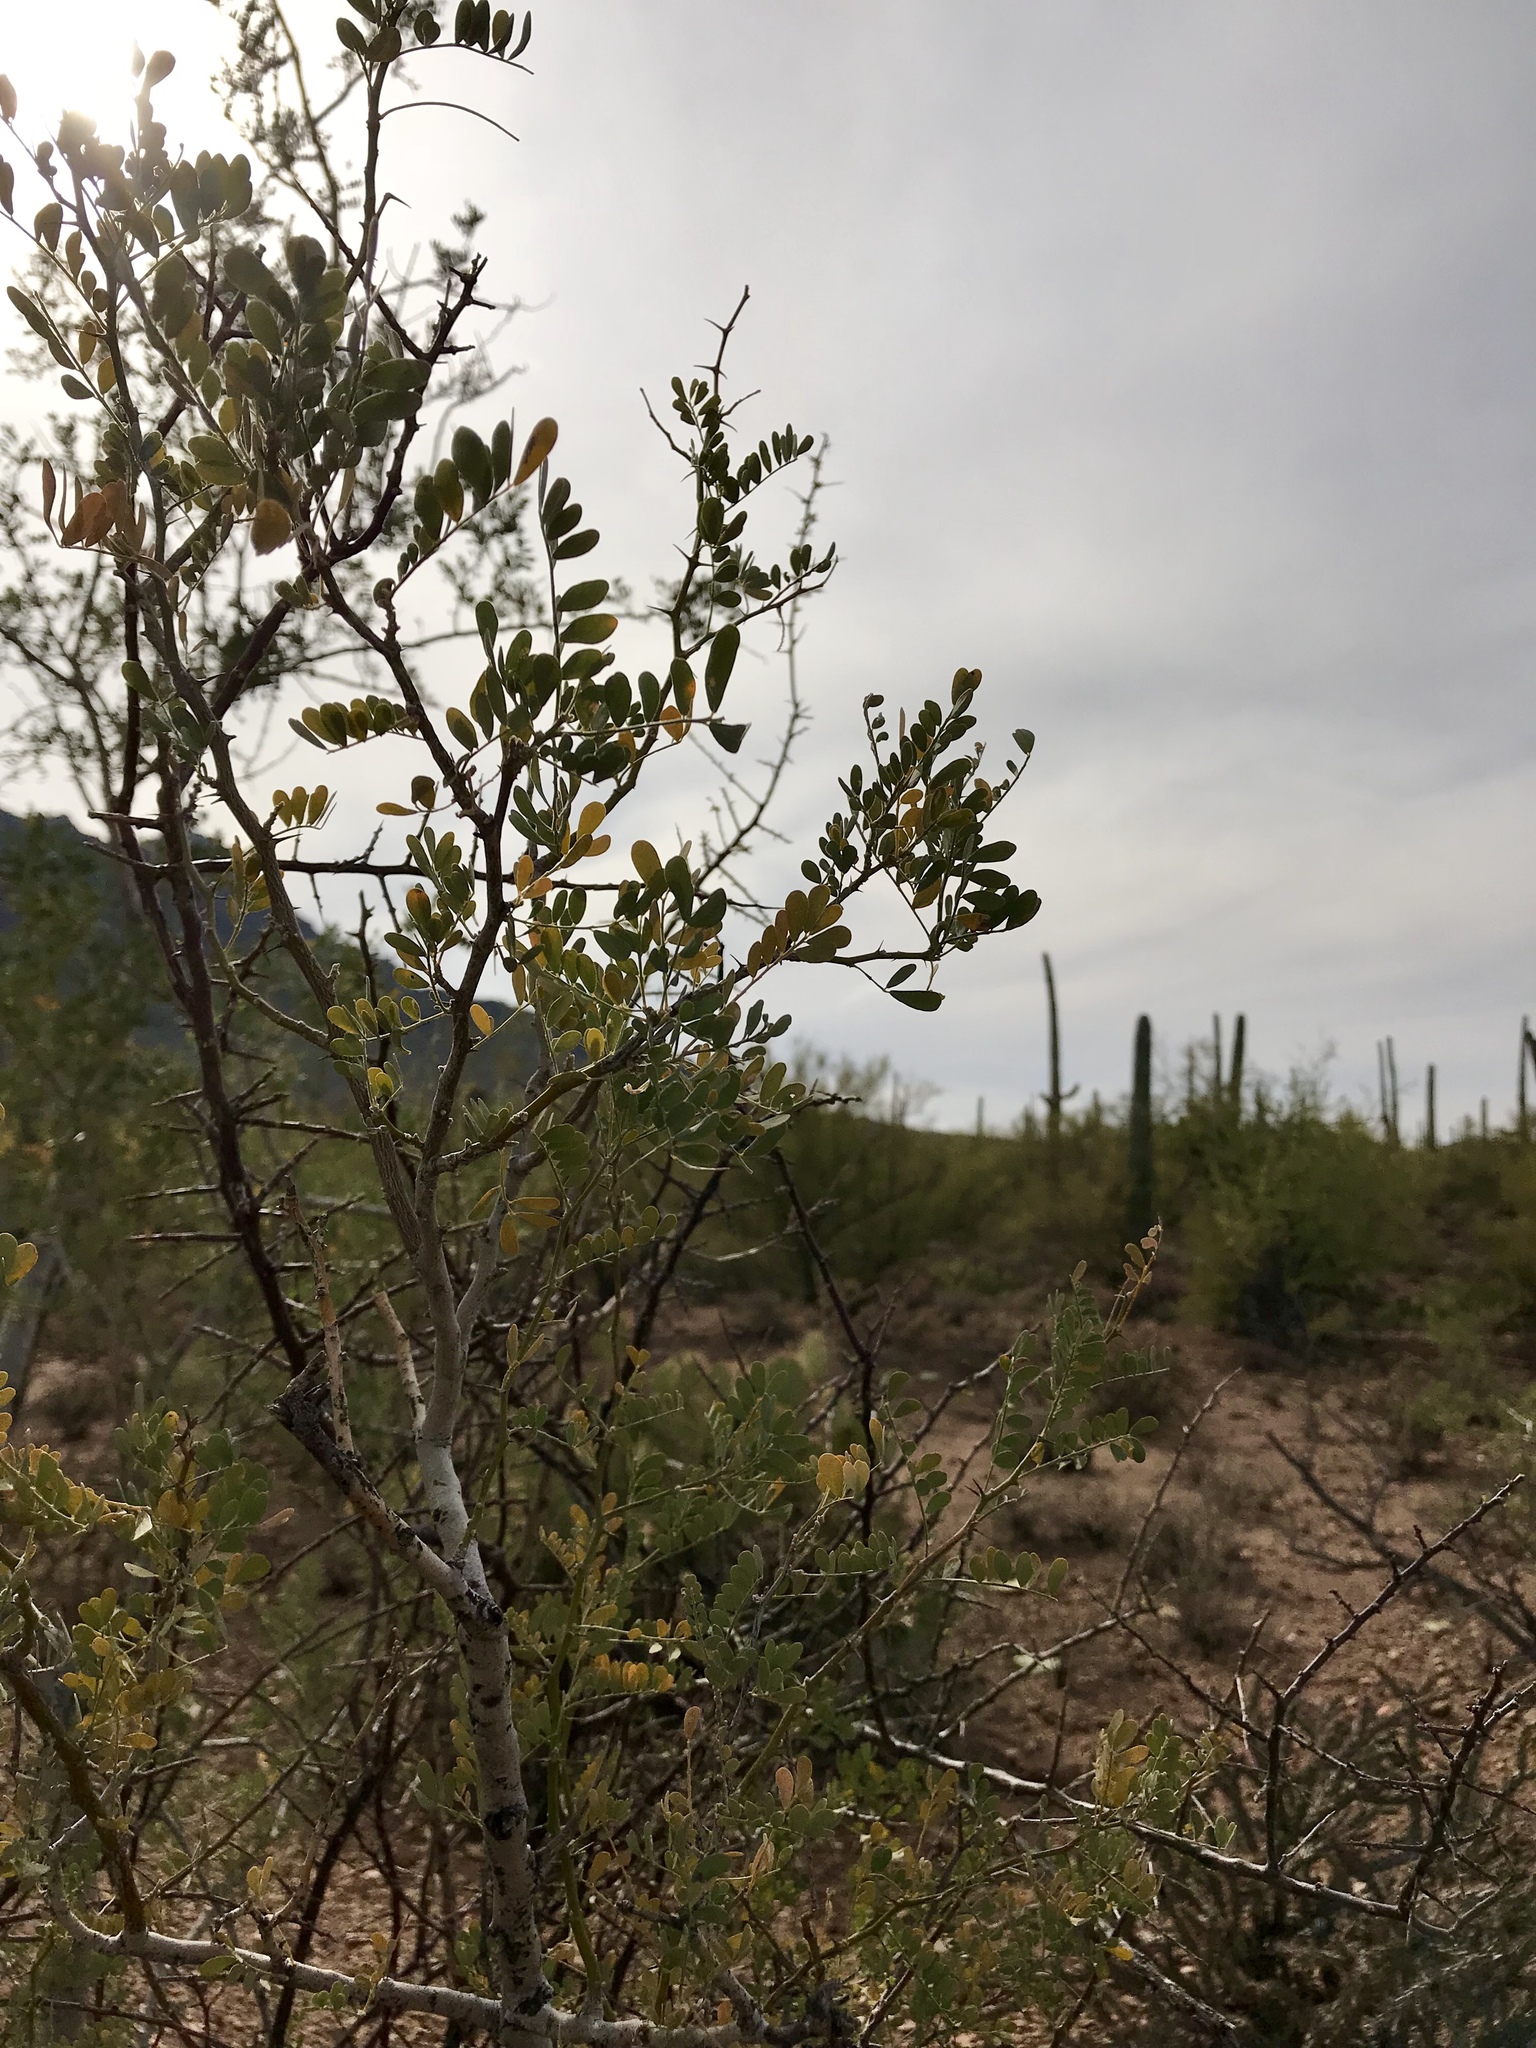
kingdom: Plantae
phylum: Tracheophyta
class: Magnoliopsida
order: Fabales
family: Fabaceae
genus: Olneya
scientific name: Olneya tesota
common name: Desert ironwood
